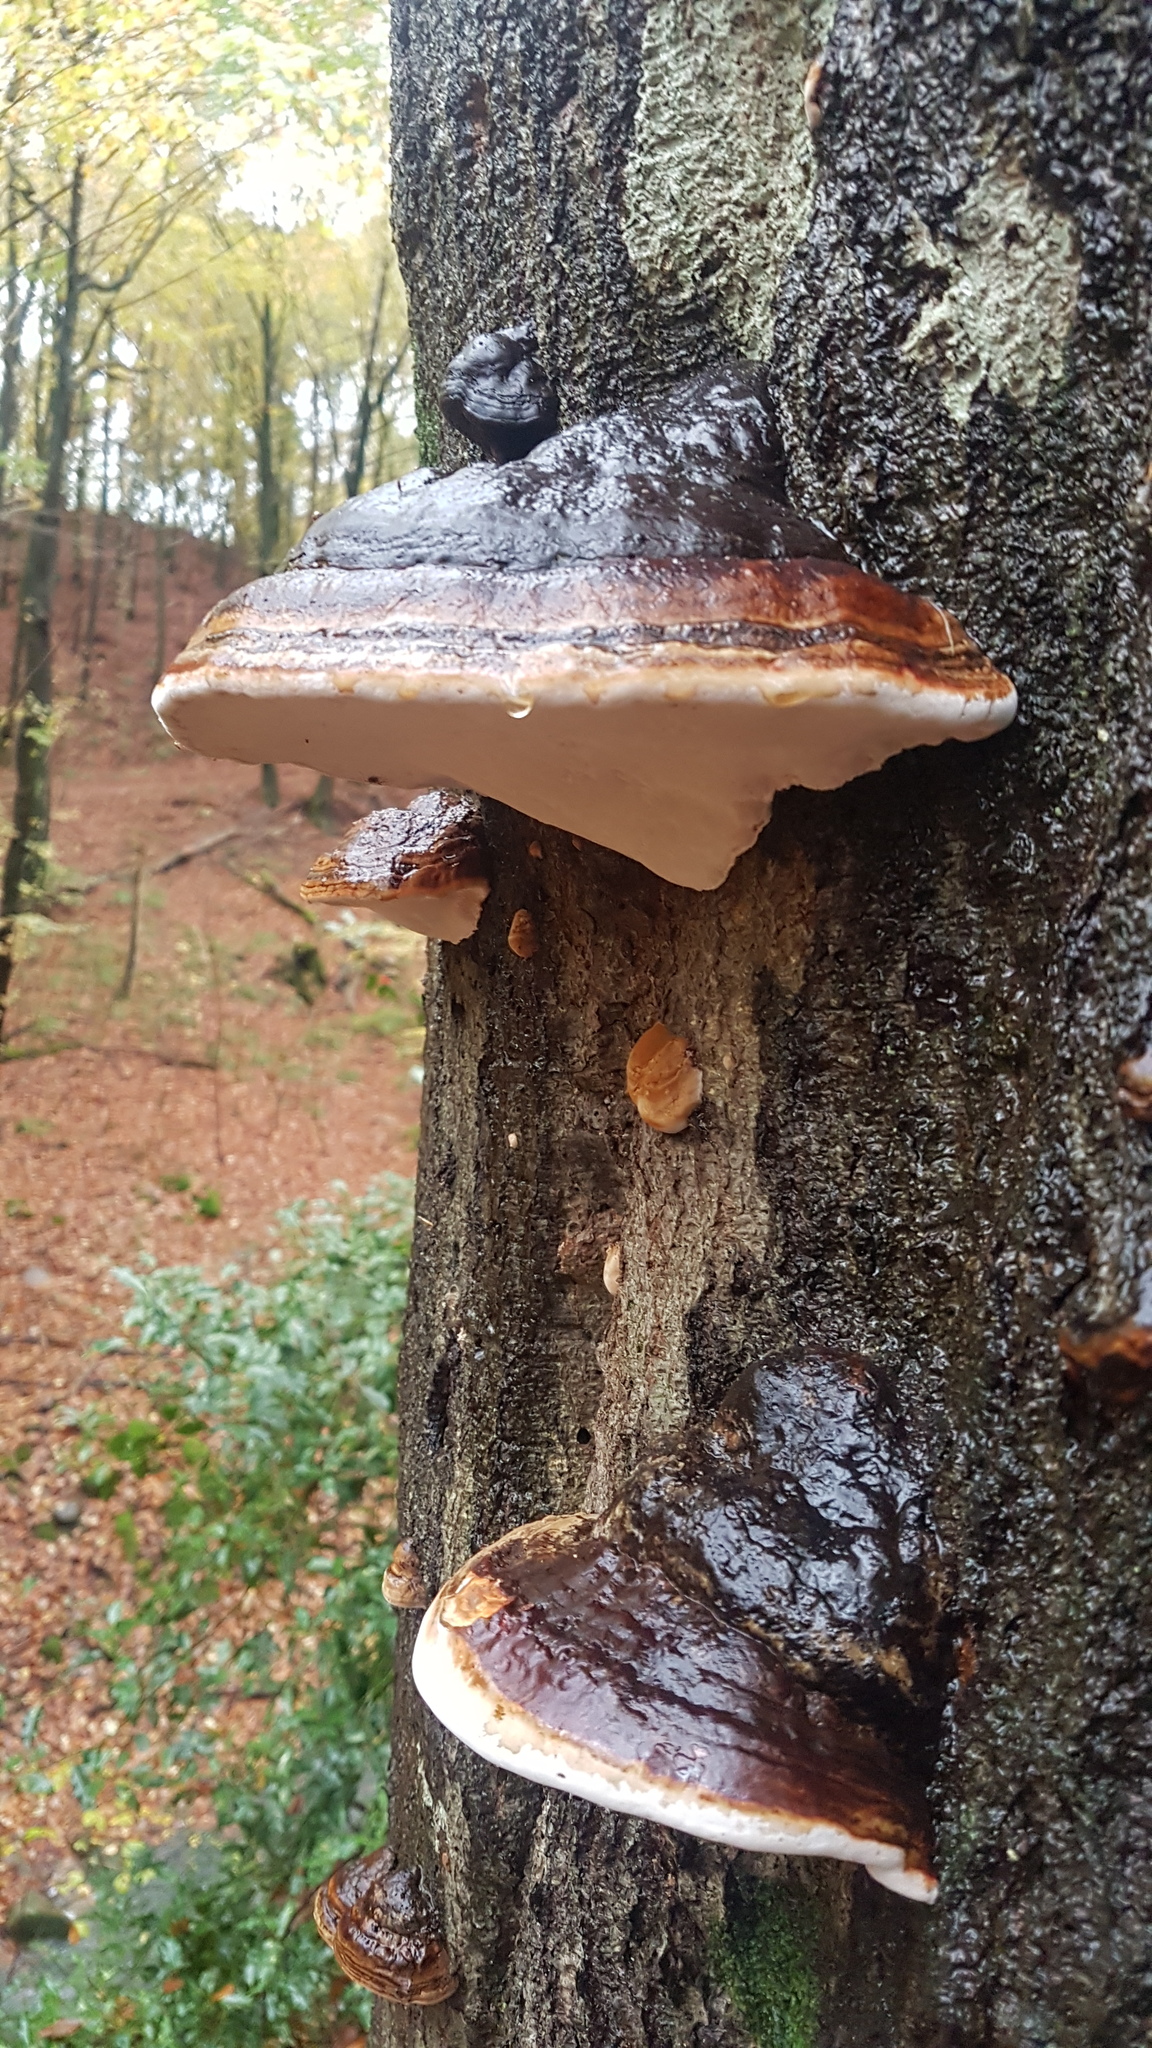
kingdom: Fungi
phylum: Basidiomycota
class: Agaricomycetes
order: Polyporales
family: Fomitopsidaceae
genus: Fomitopsis
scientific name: Fomitopsis pinicola
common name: Red-belted bracket
